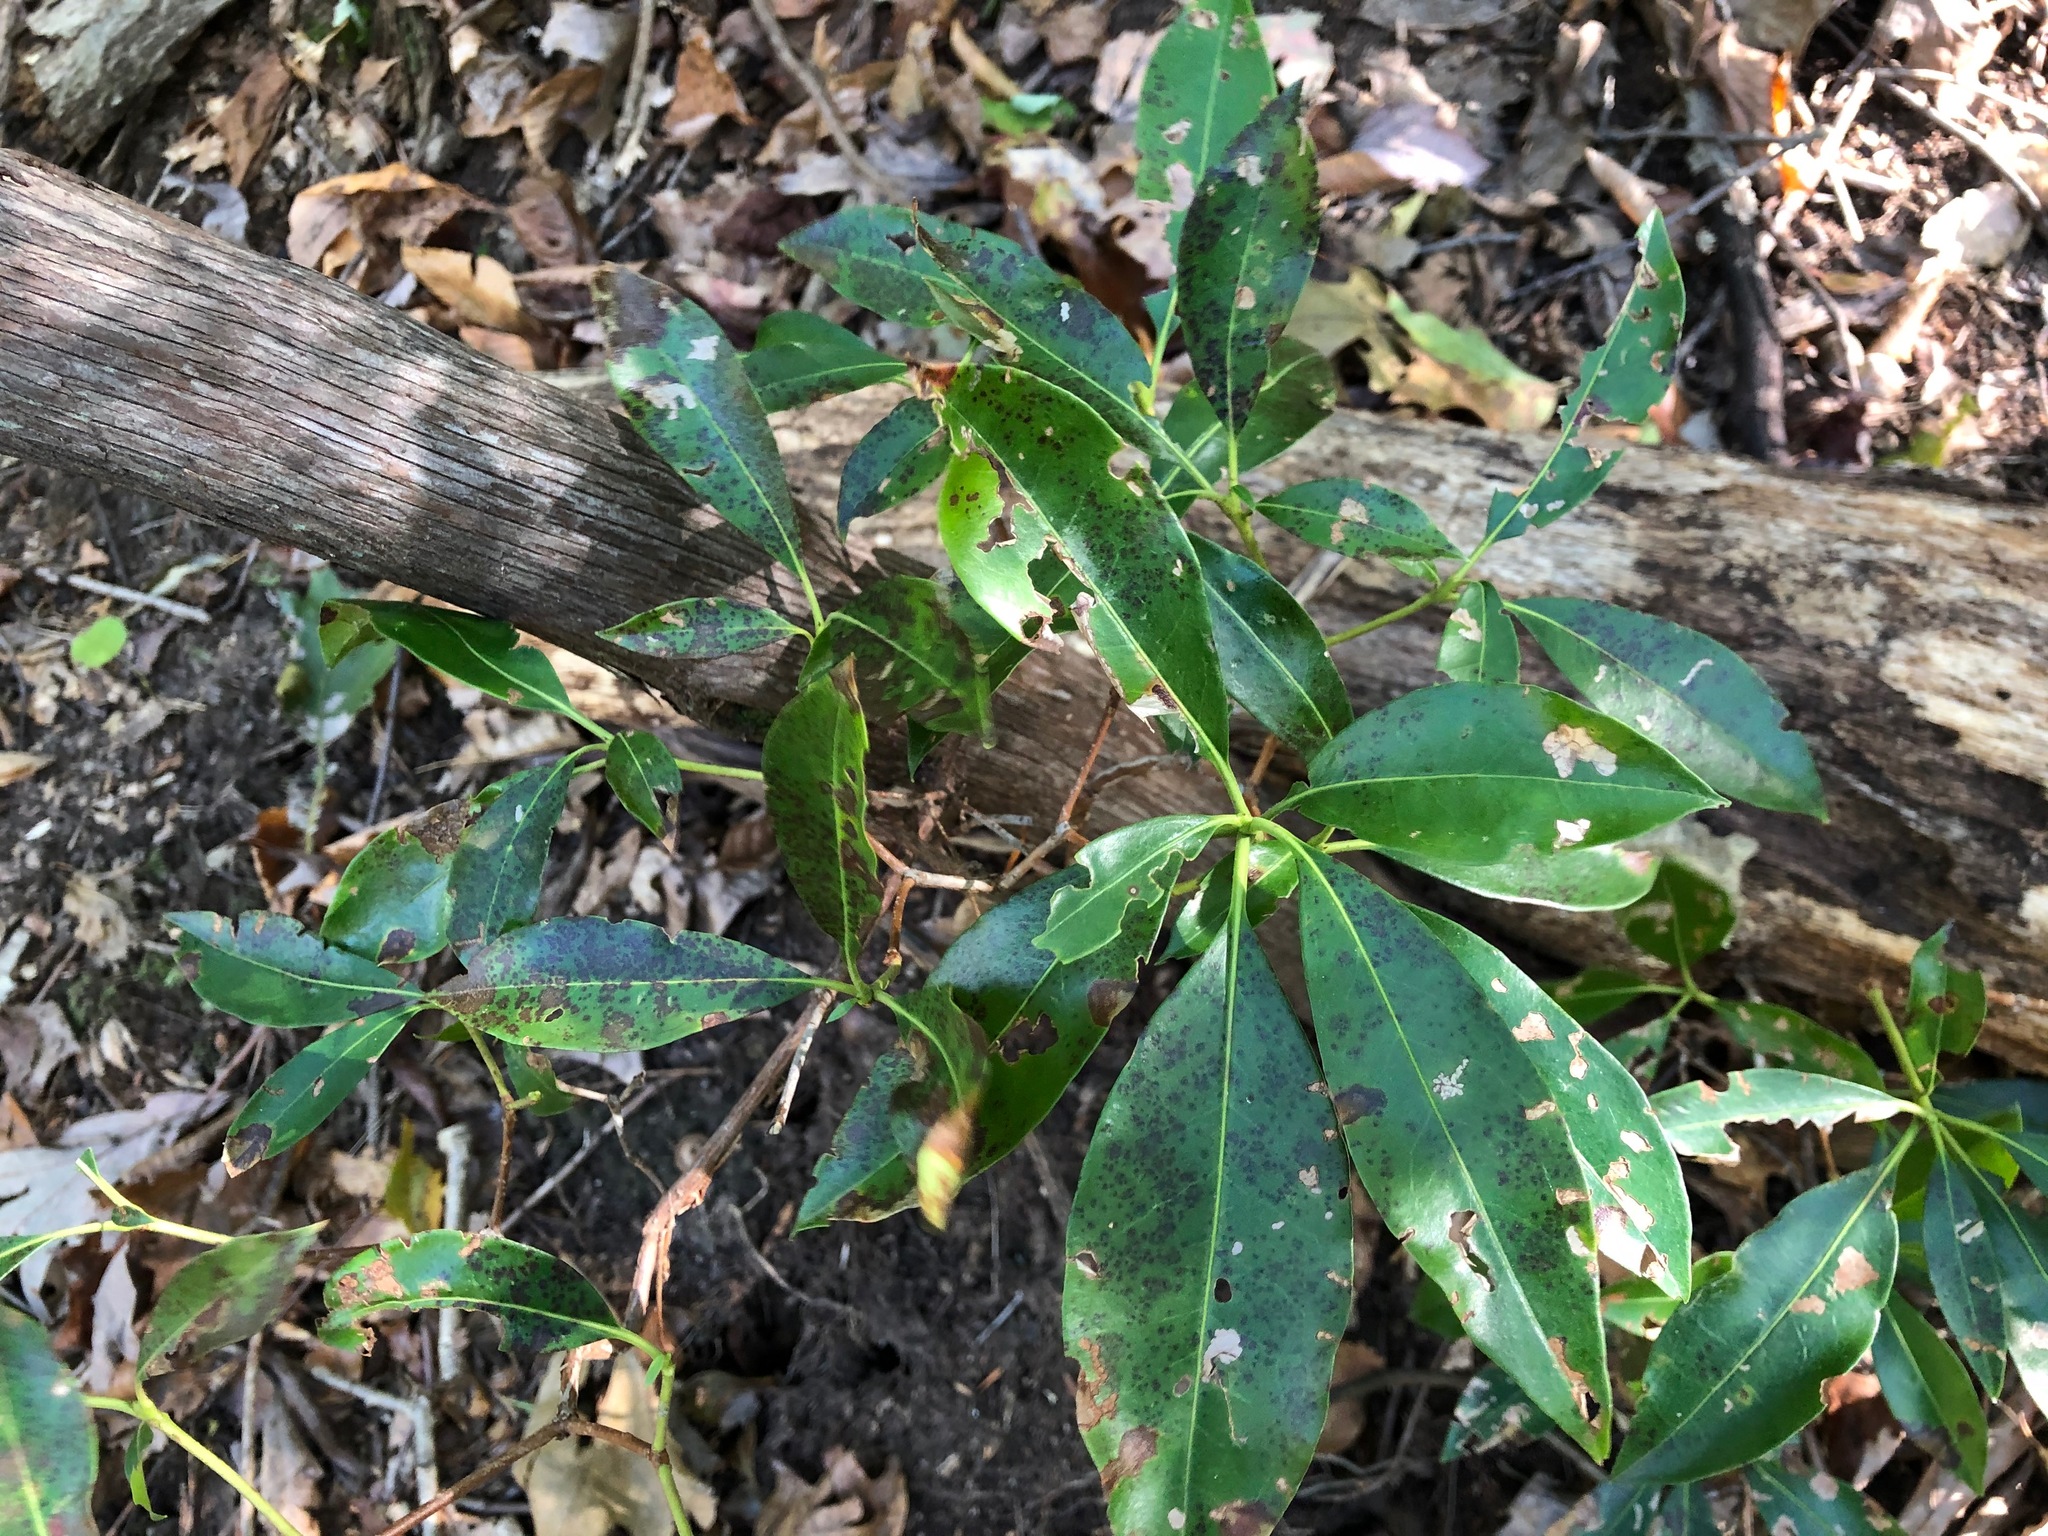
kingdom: Plantae
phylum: Tracheophyta
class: Magnoliopsida
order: Ericales
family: Ericaceae
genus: Kalmia
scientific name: Kalmia latifolia
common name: Mountain-laurel
